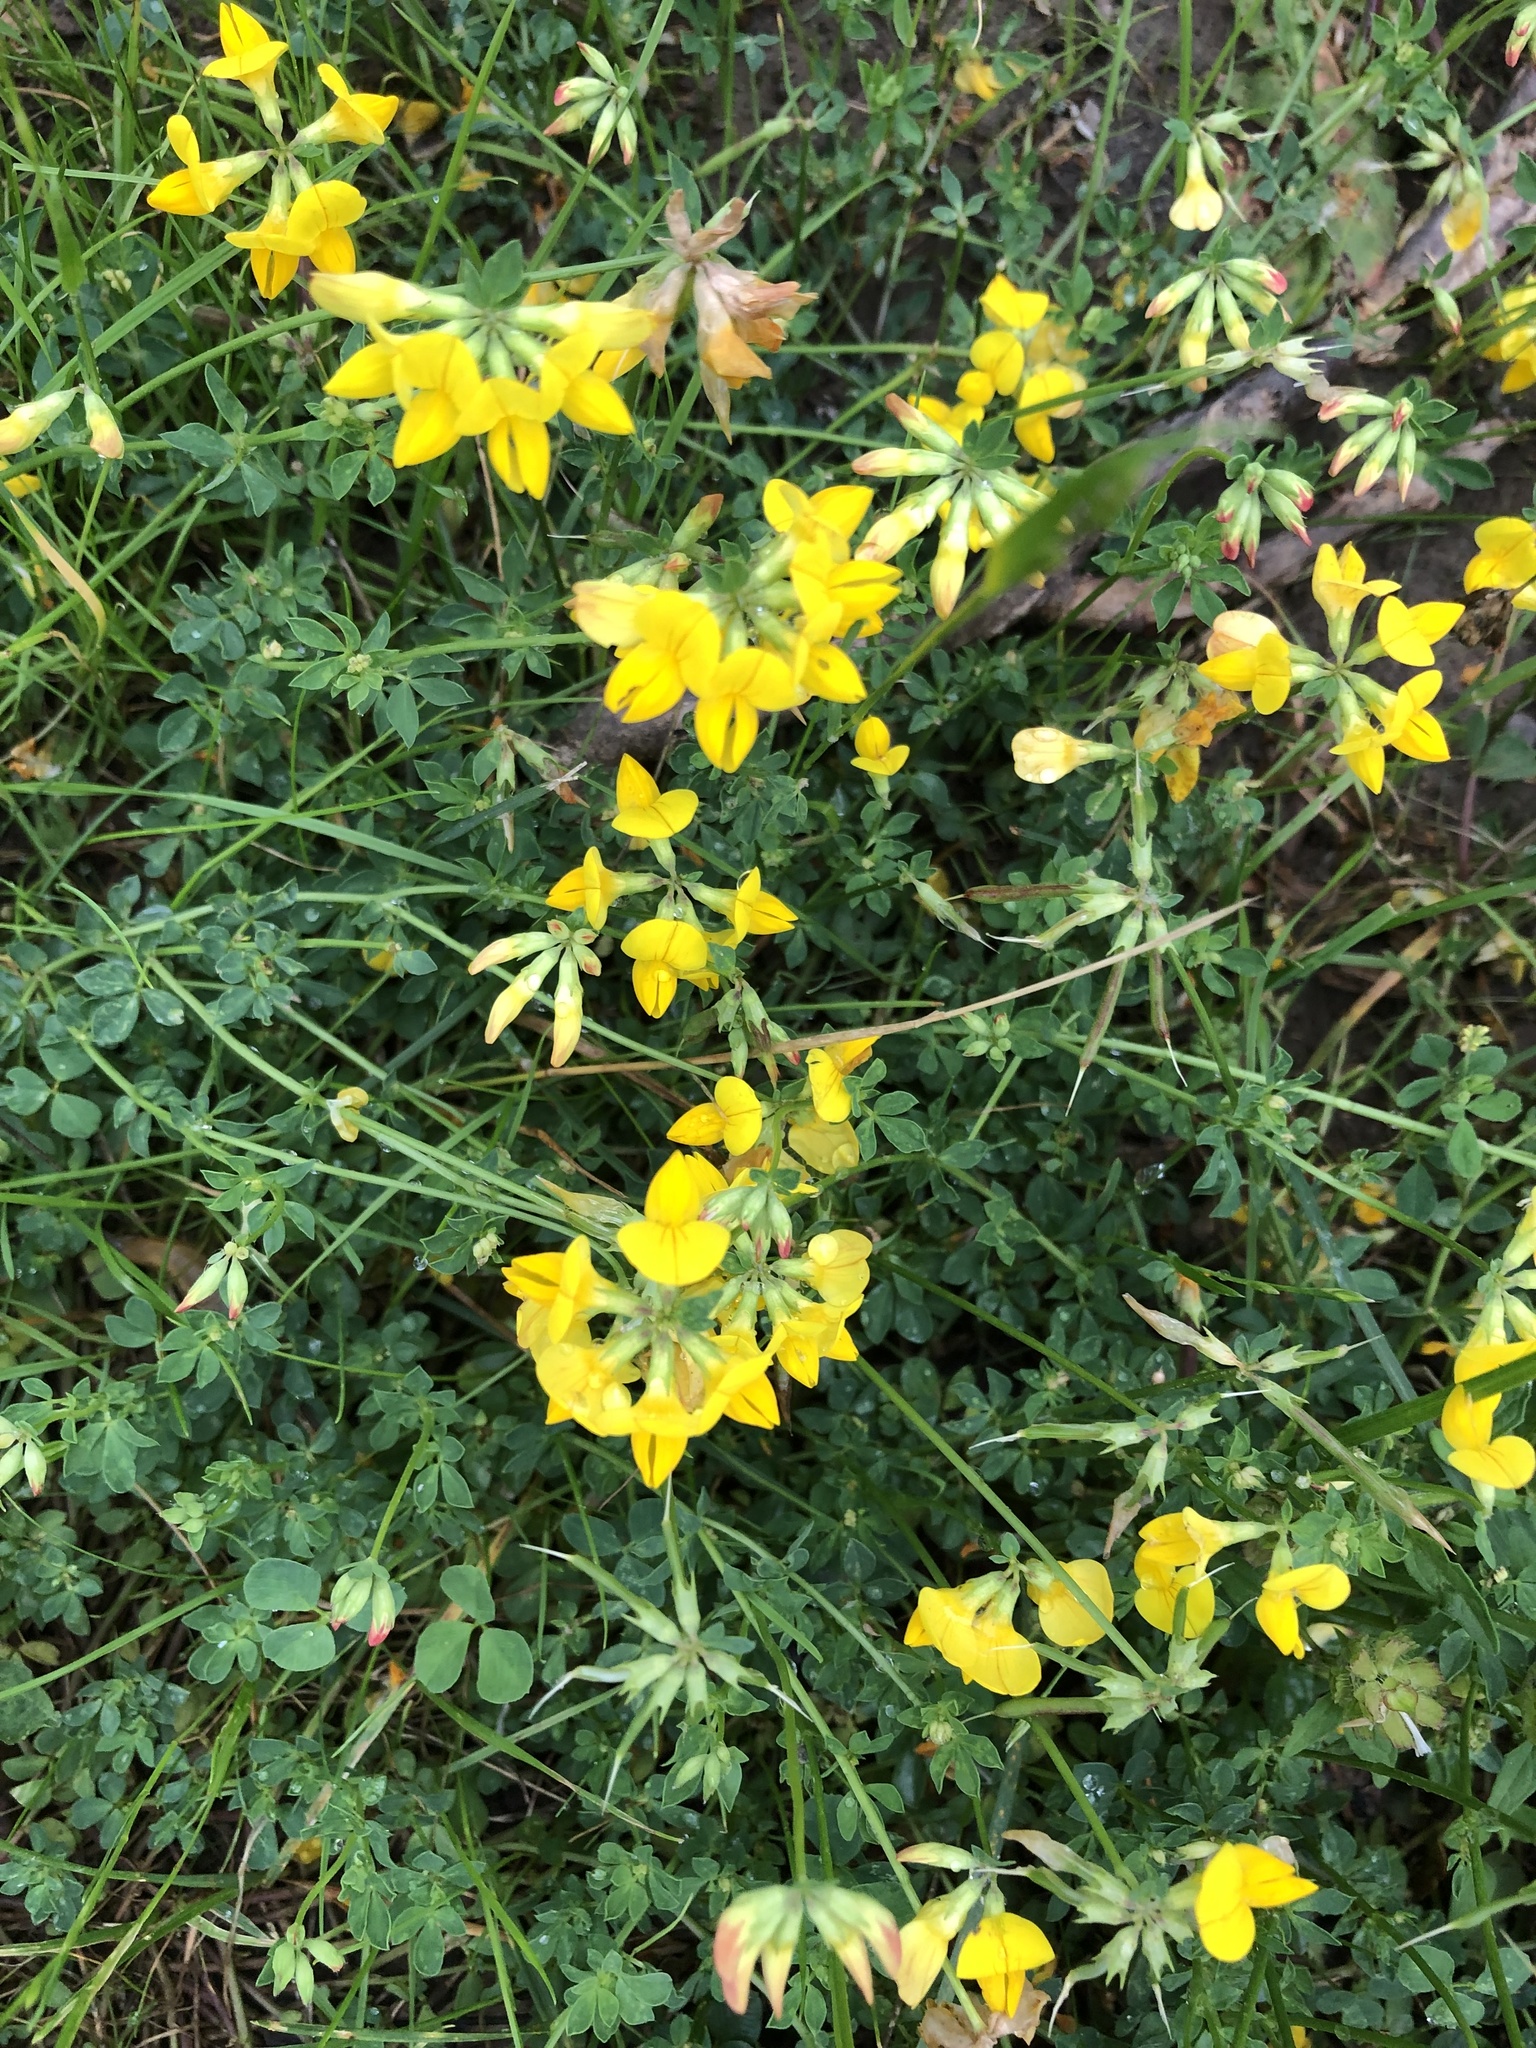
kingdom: Plantae
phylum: Tracheophyta
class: Magnoliopsida
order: Fabales
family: Fabaceae
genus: Lotus
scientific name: Lotus corniculatus
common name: Common bird's-foot-trefoil
